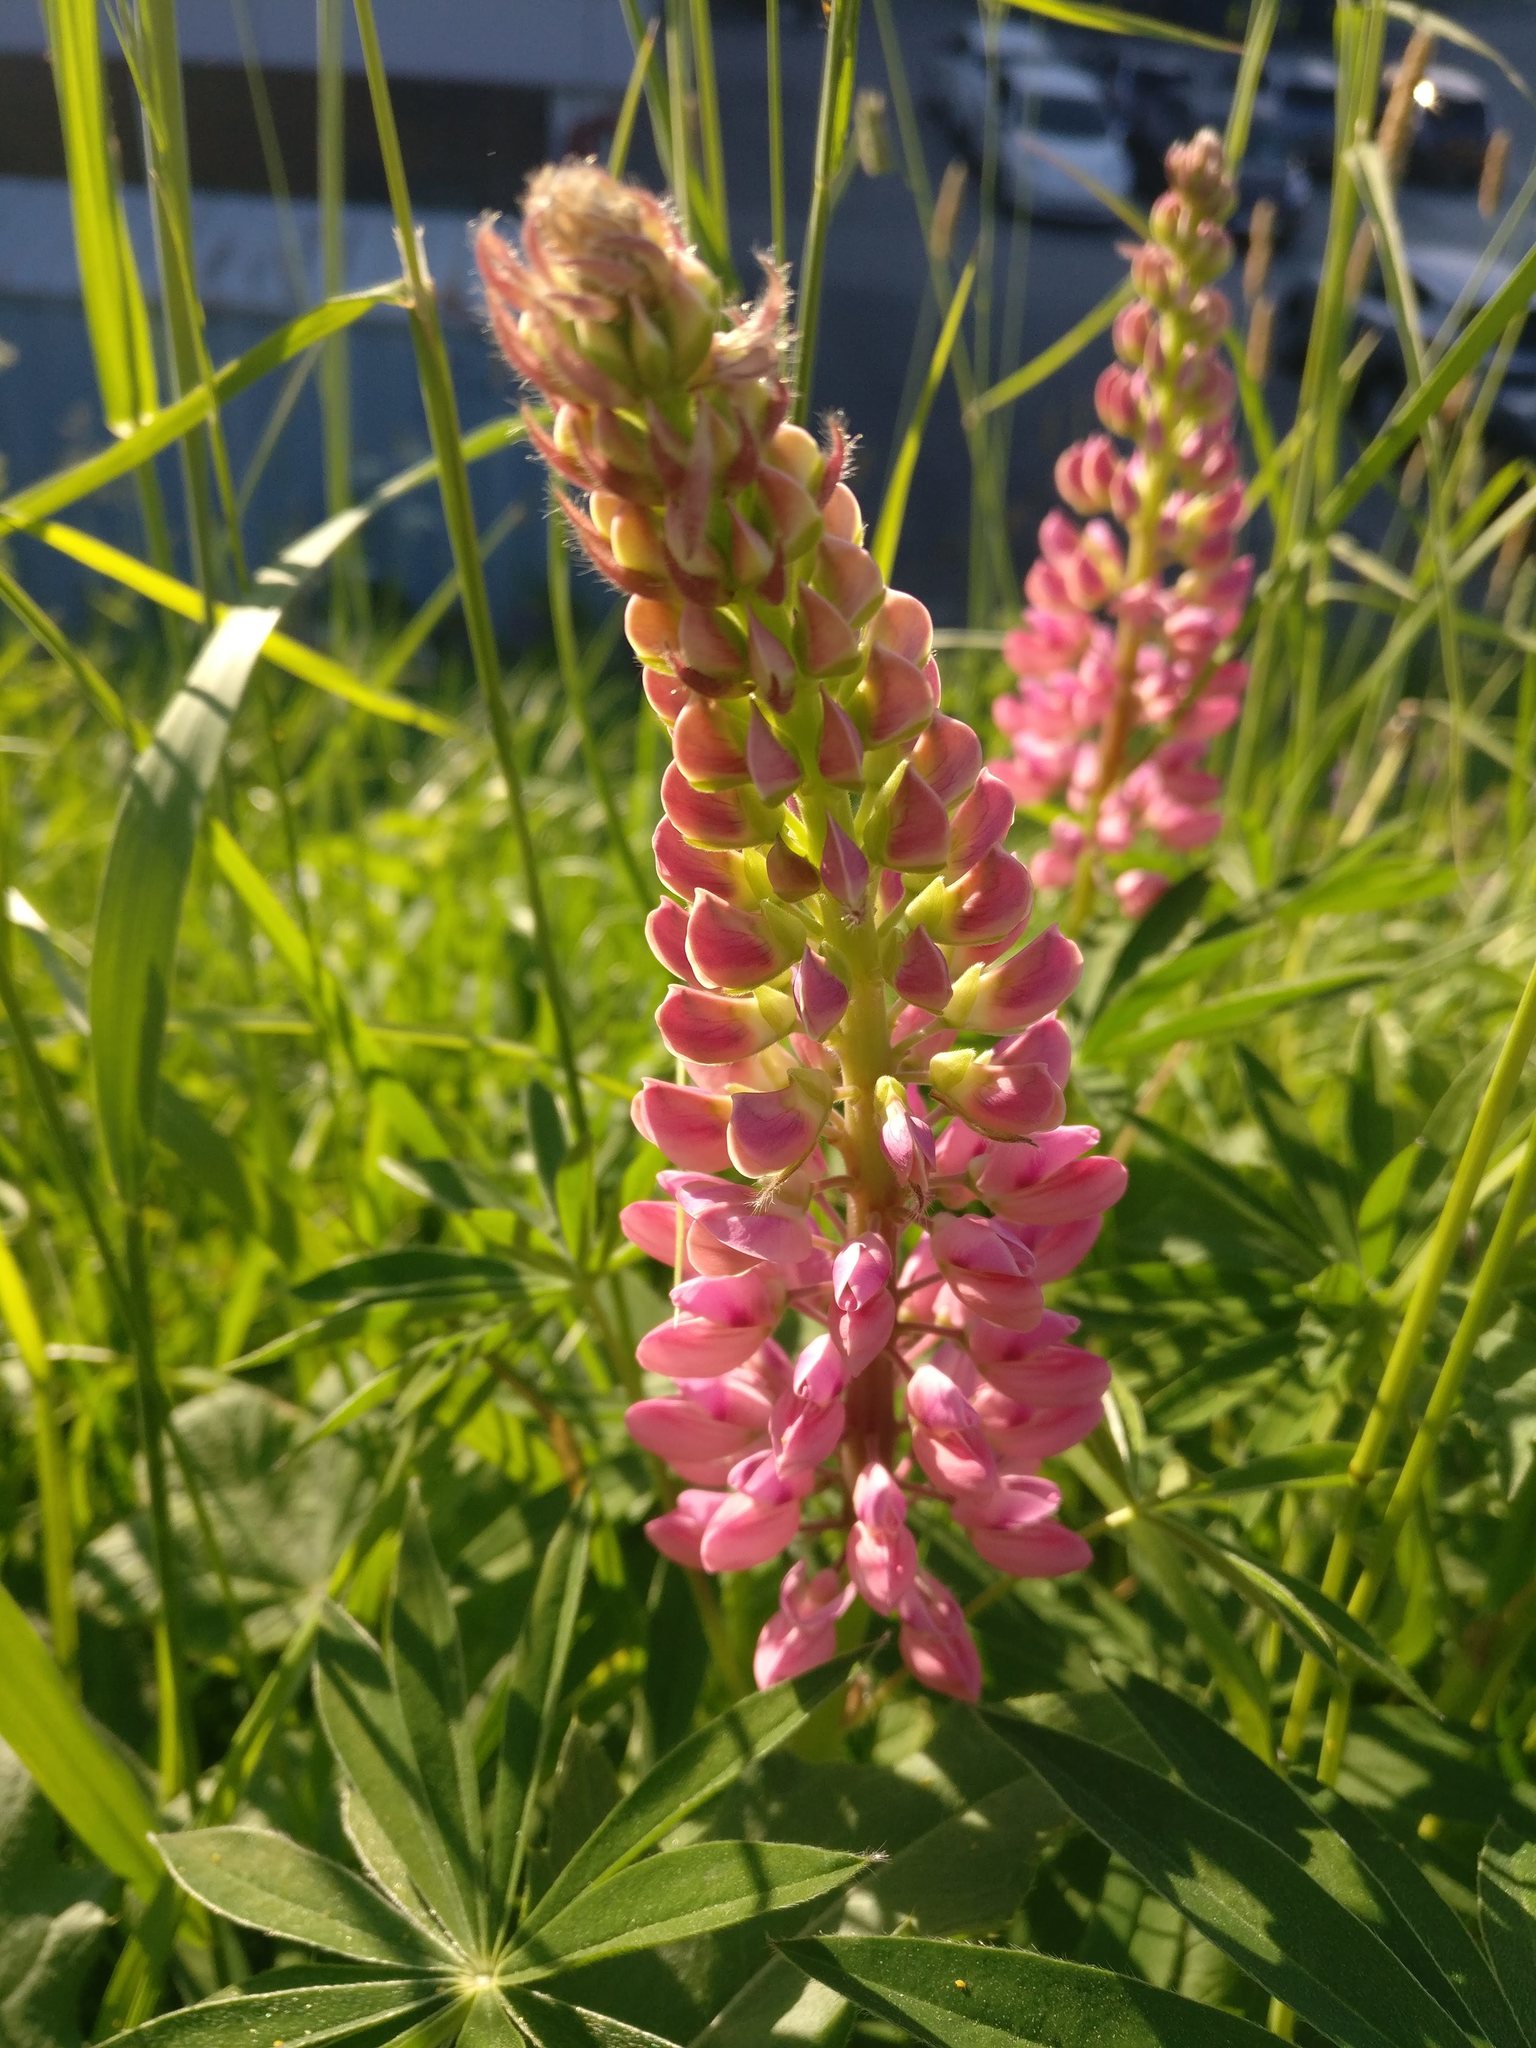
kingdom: Plantae
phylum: Tracheophyta
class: Magnoliopsida
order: Fabales
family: Fabaceae
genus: Lupinus
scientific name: Lupinus polyphyllus
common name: Garden lupin
